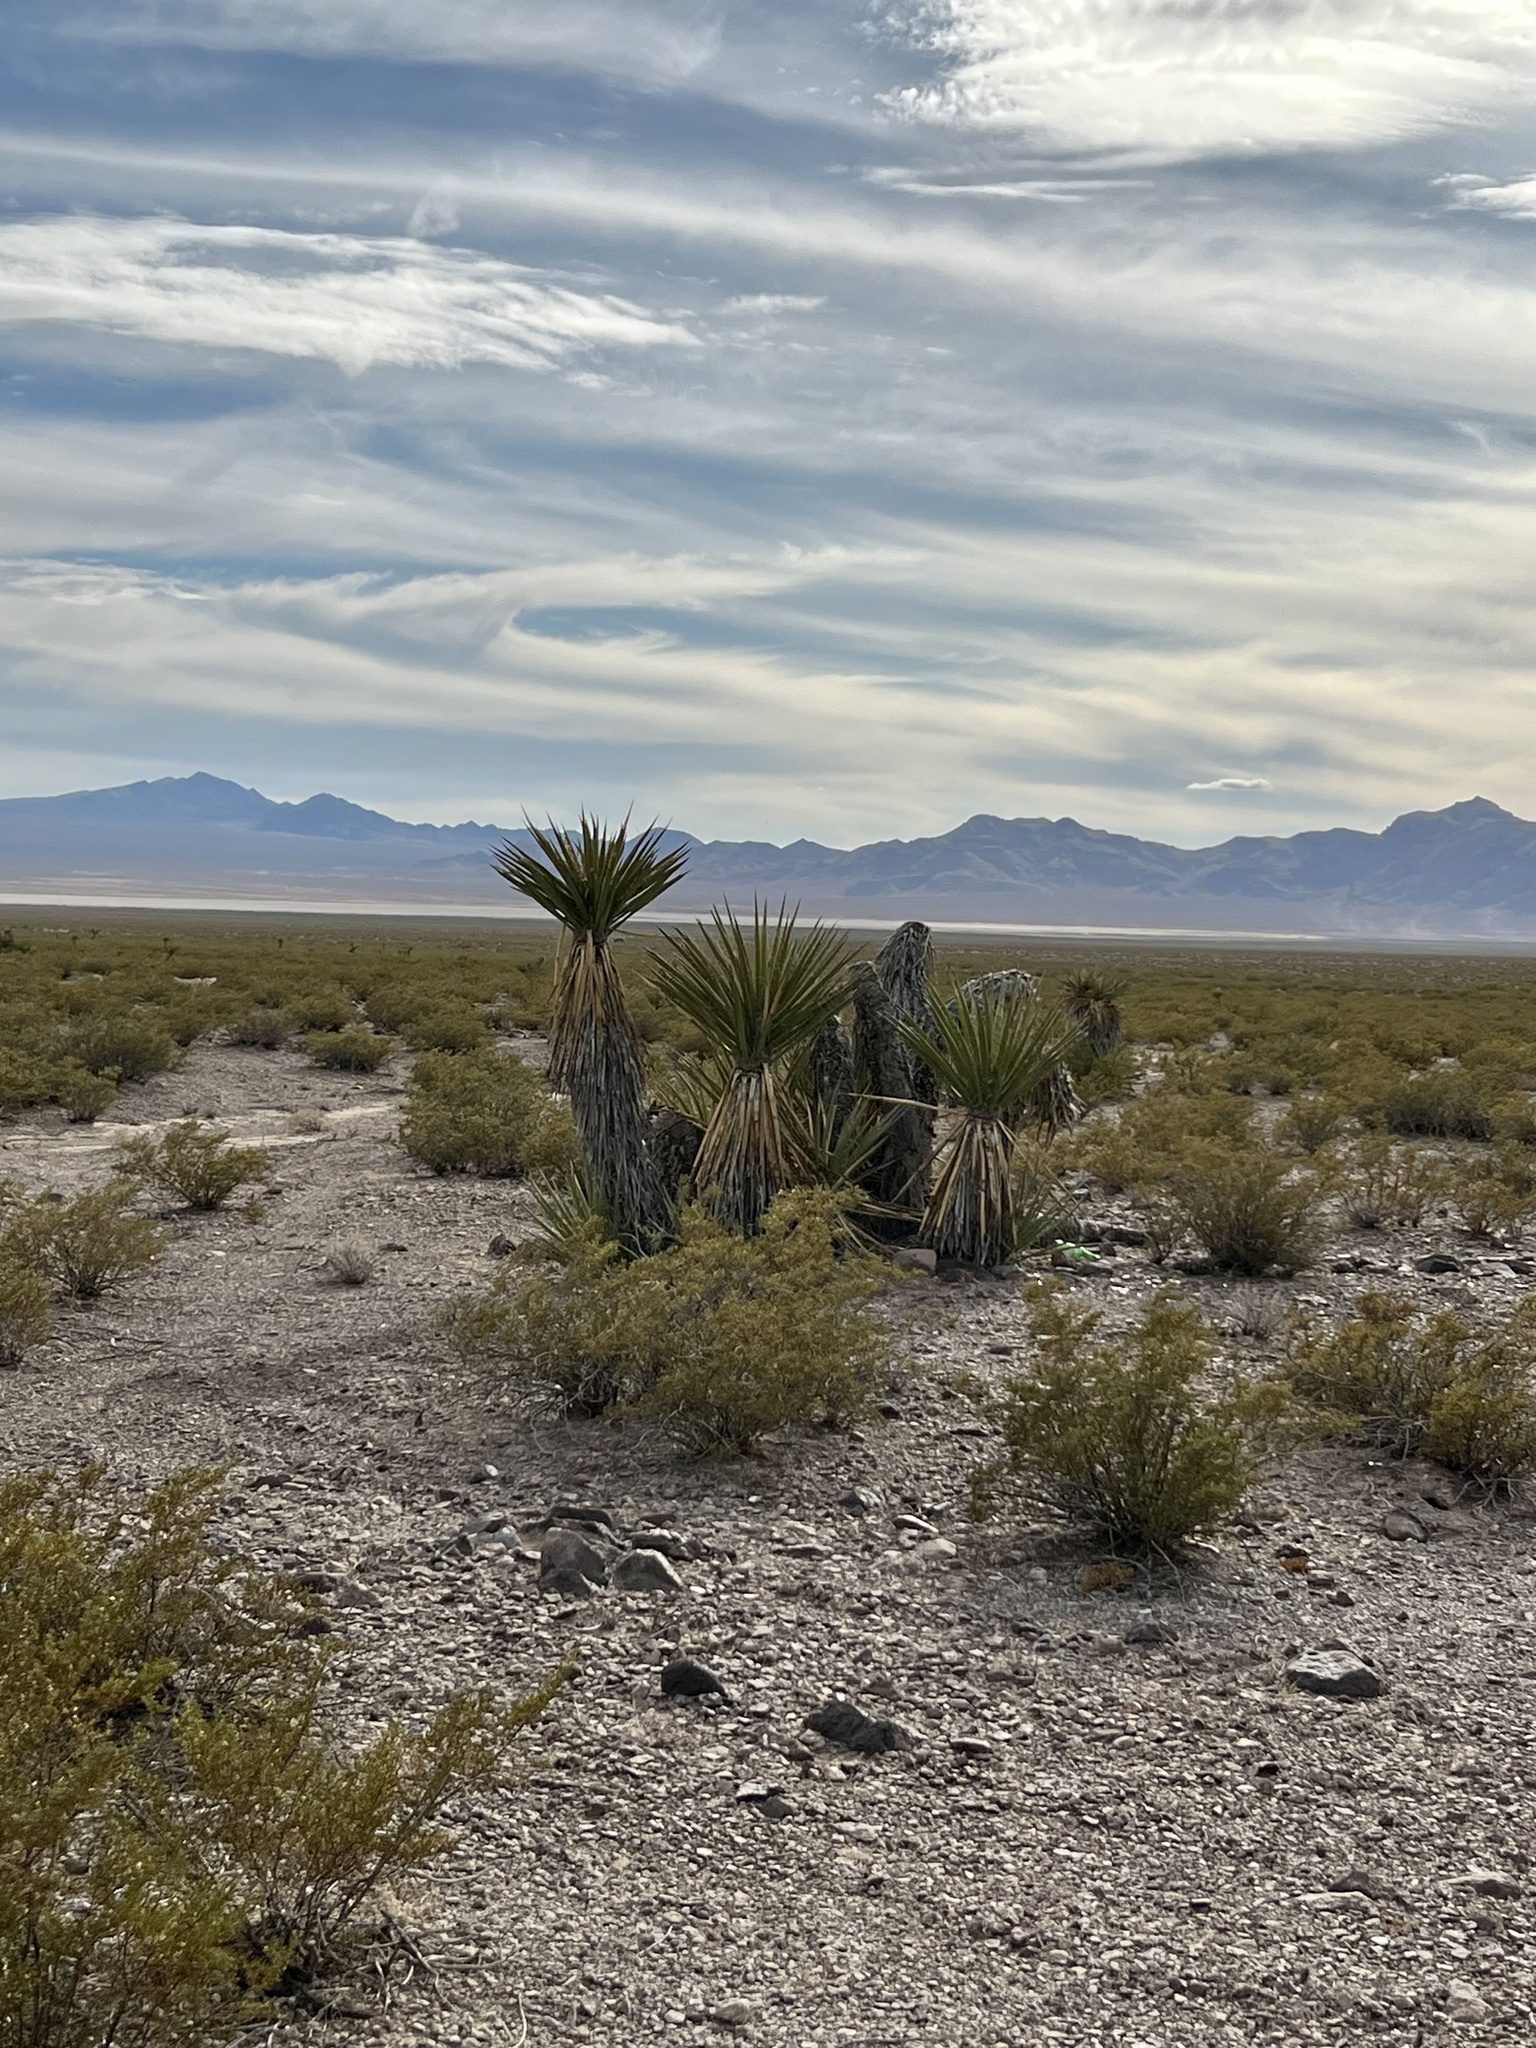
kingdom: Plantae
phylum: Tracheophyta
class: Liliopsida
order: Asparagales
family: Asparagaceae
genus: Yucca
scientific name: Yucca schidigera
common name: Mojave yucca
